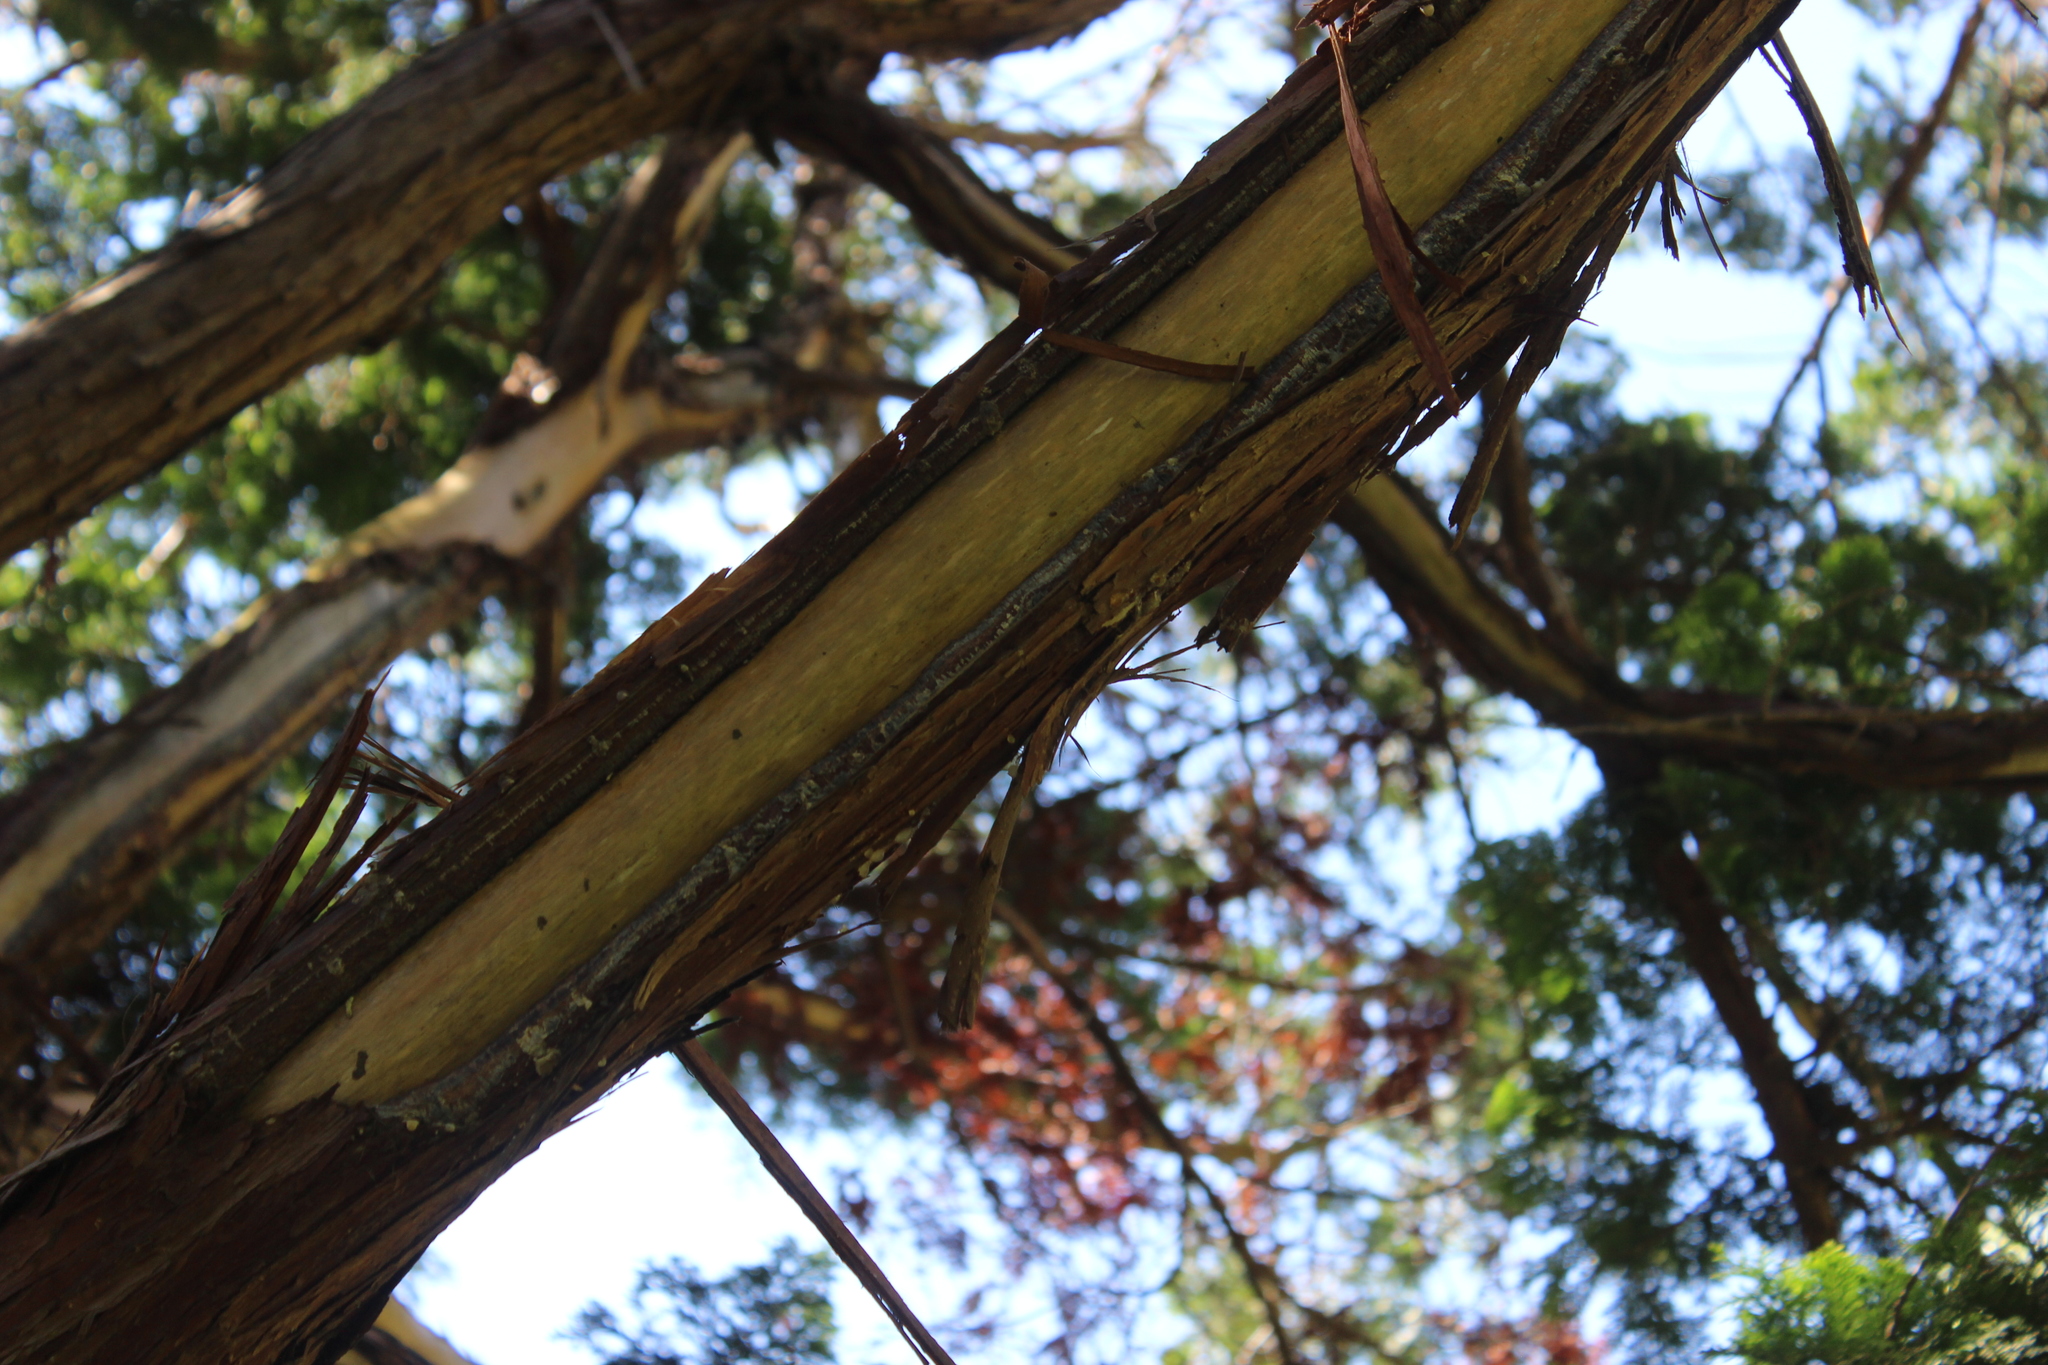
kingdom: Animalia
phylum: Chordata
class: Aves
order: Psittaciformes
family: Psittacidae
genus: Nestor
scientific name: Nestor meridionalis
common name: New zealand kaka
